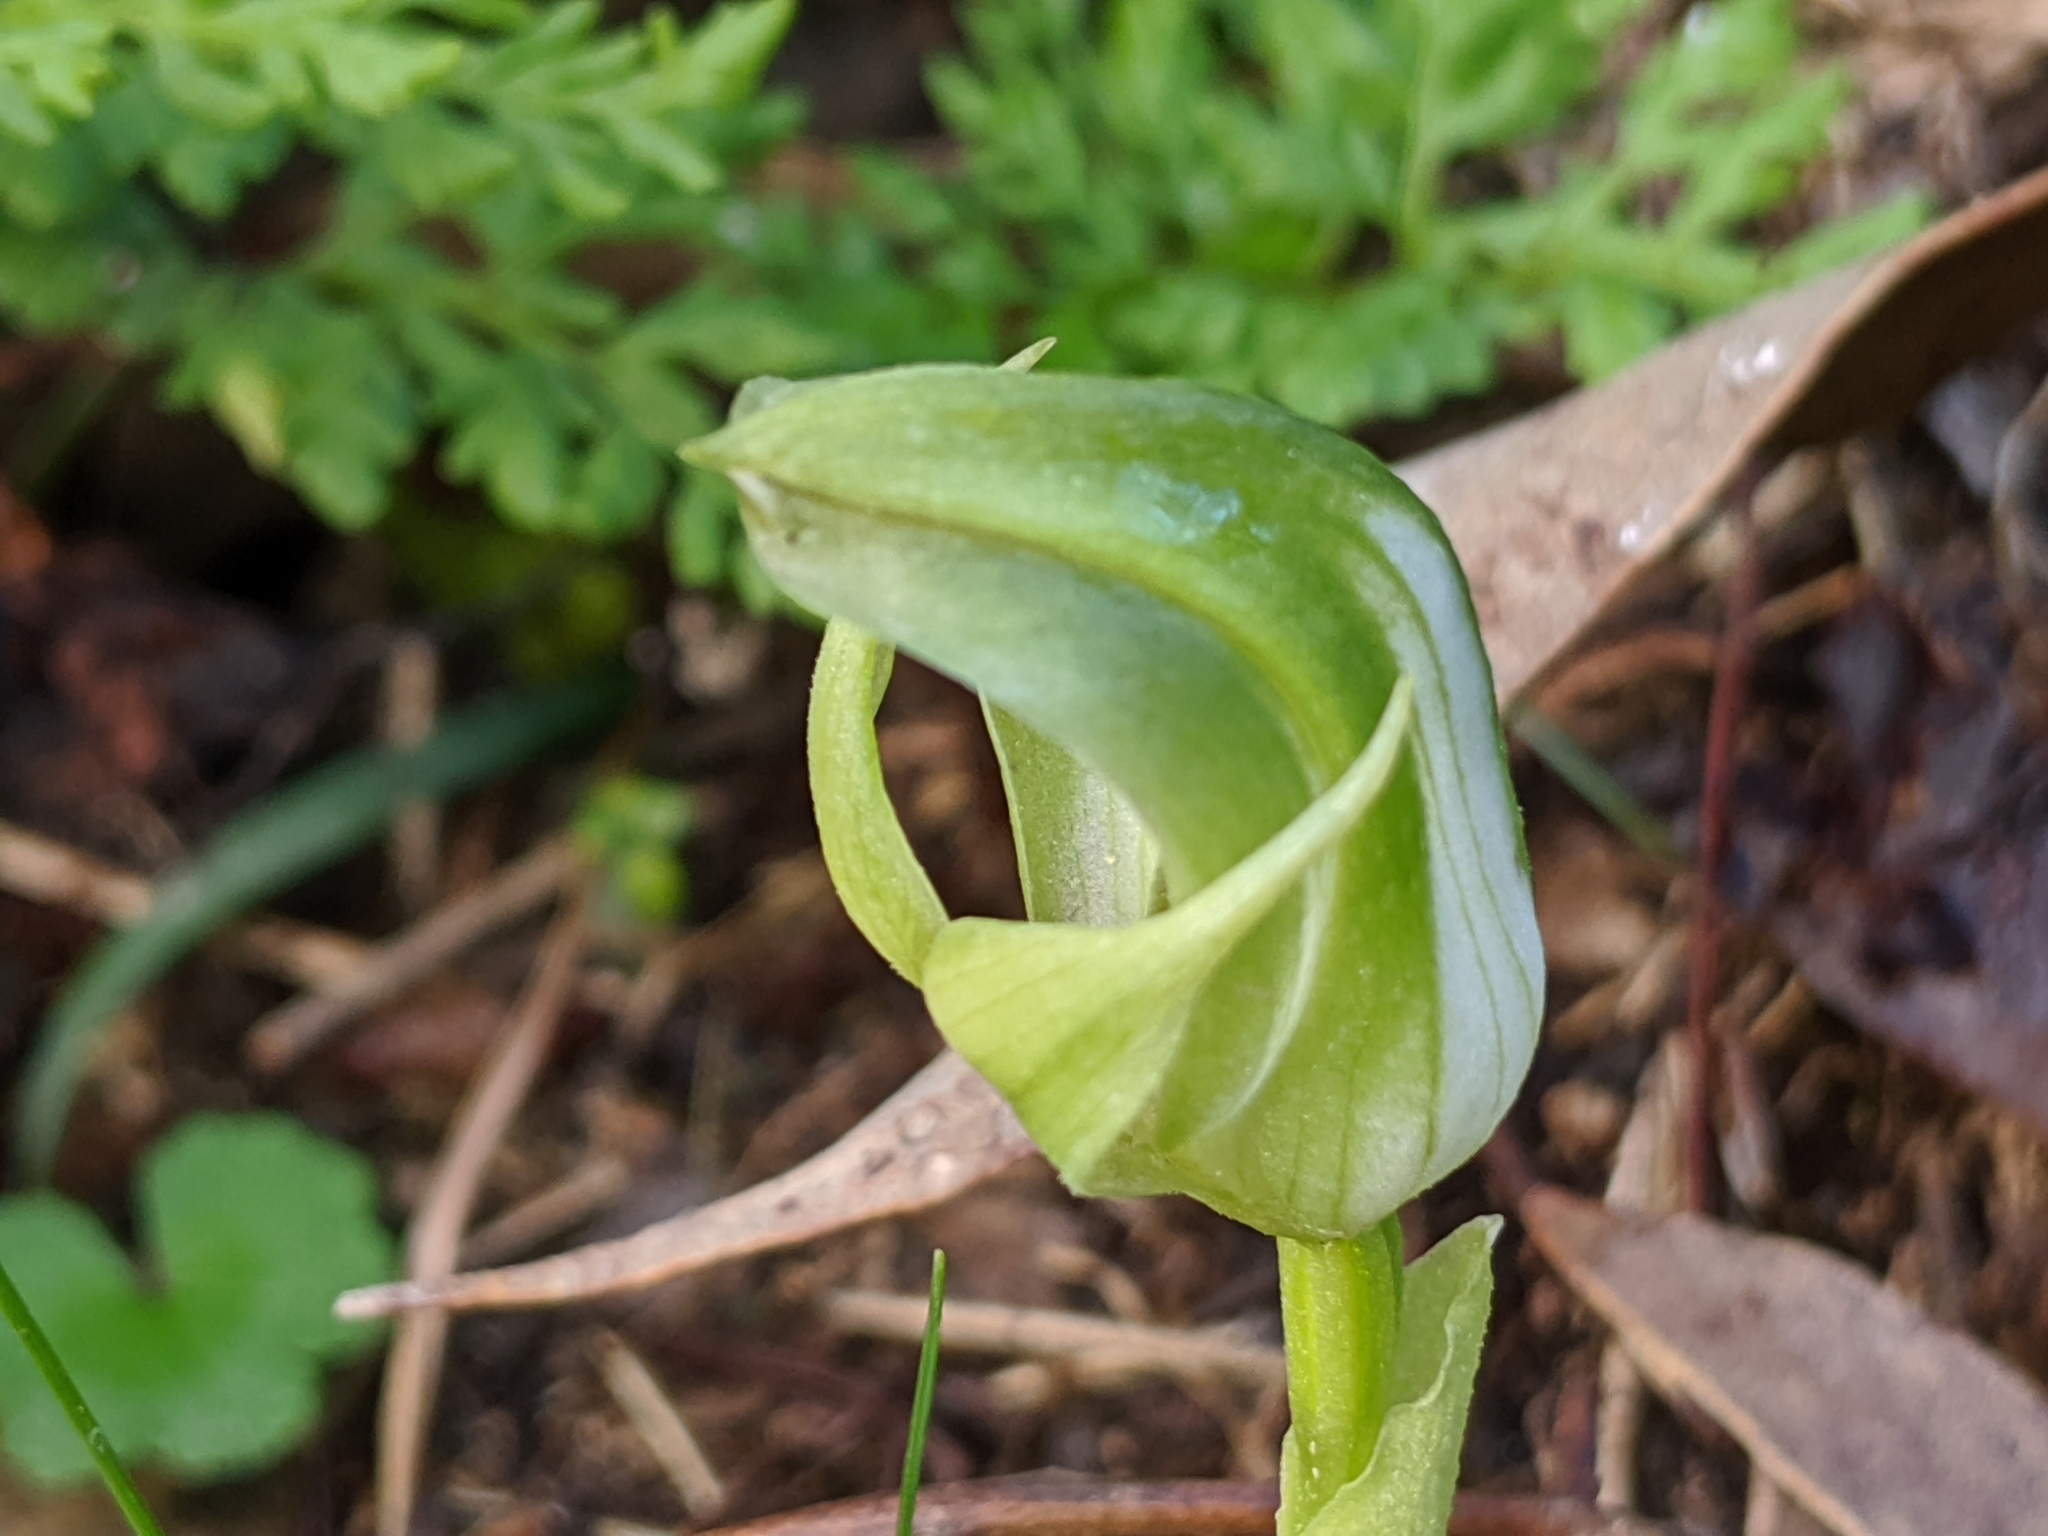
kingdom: Plantae
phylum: Tracheophyta
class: Liliopsida
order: Asparagales
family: Orchidaceae
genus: Pterostylis
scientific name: Pterostylis curta
